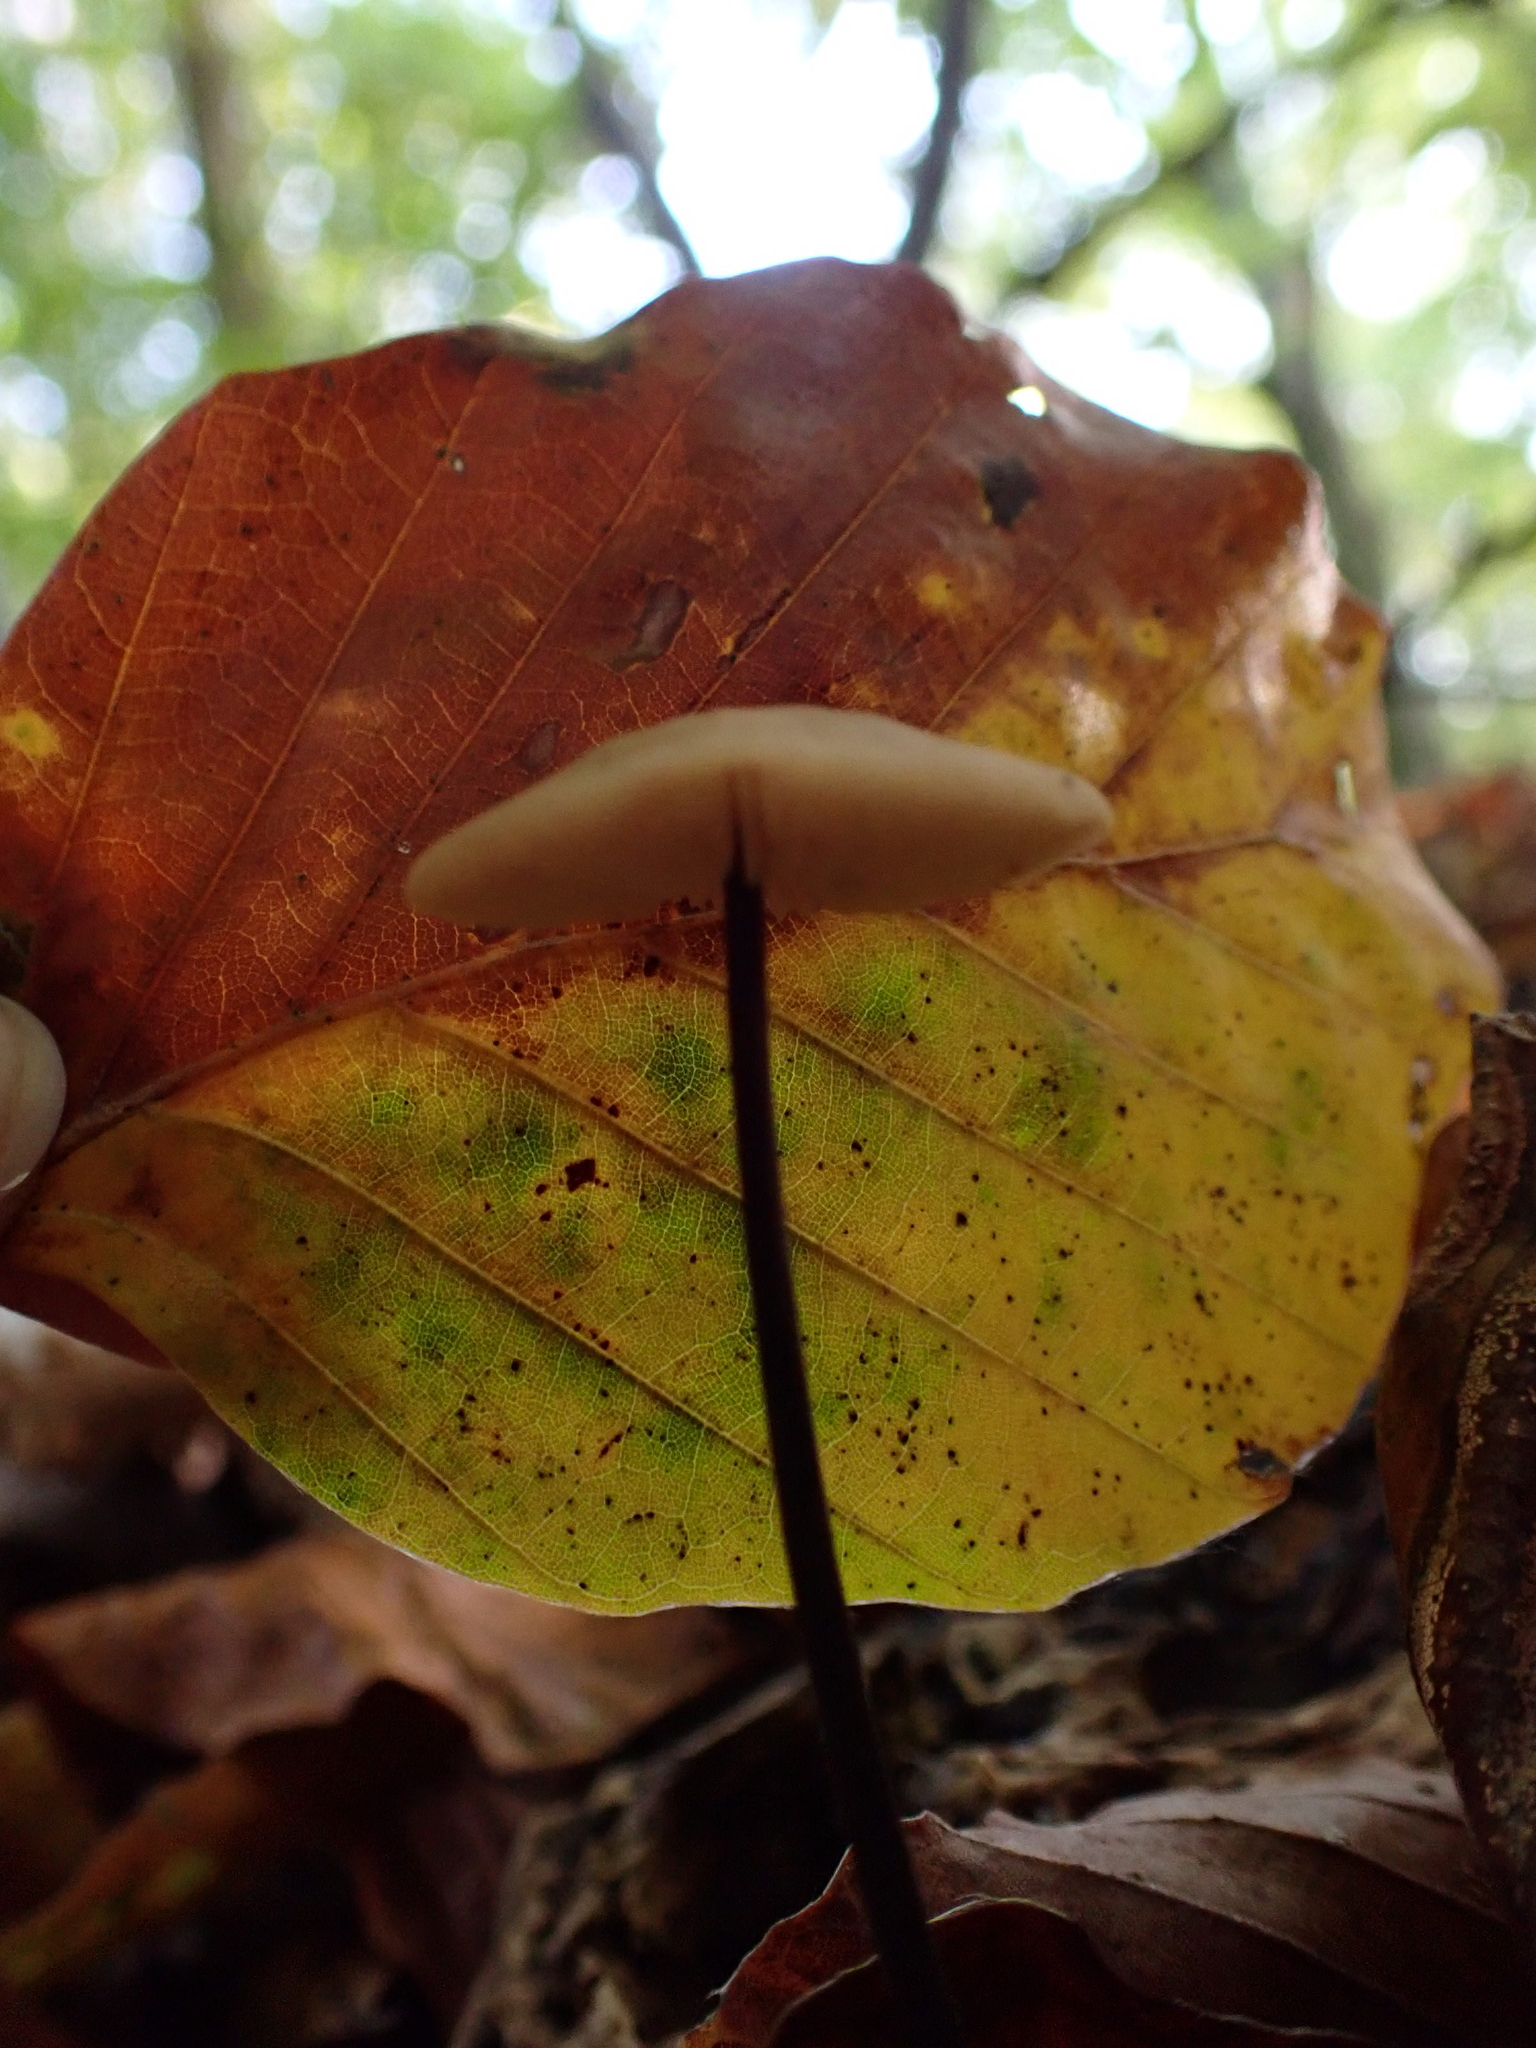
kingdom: Fungi
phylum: Basidiomycota
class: Agaricomycetes
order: Agaricales
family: Omphalotaceae
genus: Mycetinis
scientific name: Mycetinis alliaceus
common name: Garlic parachute
